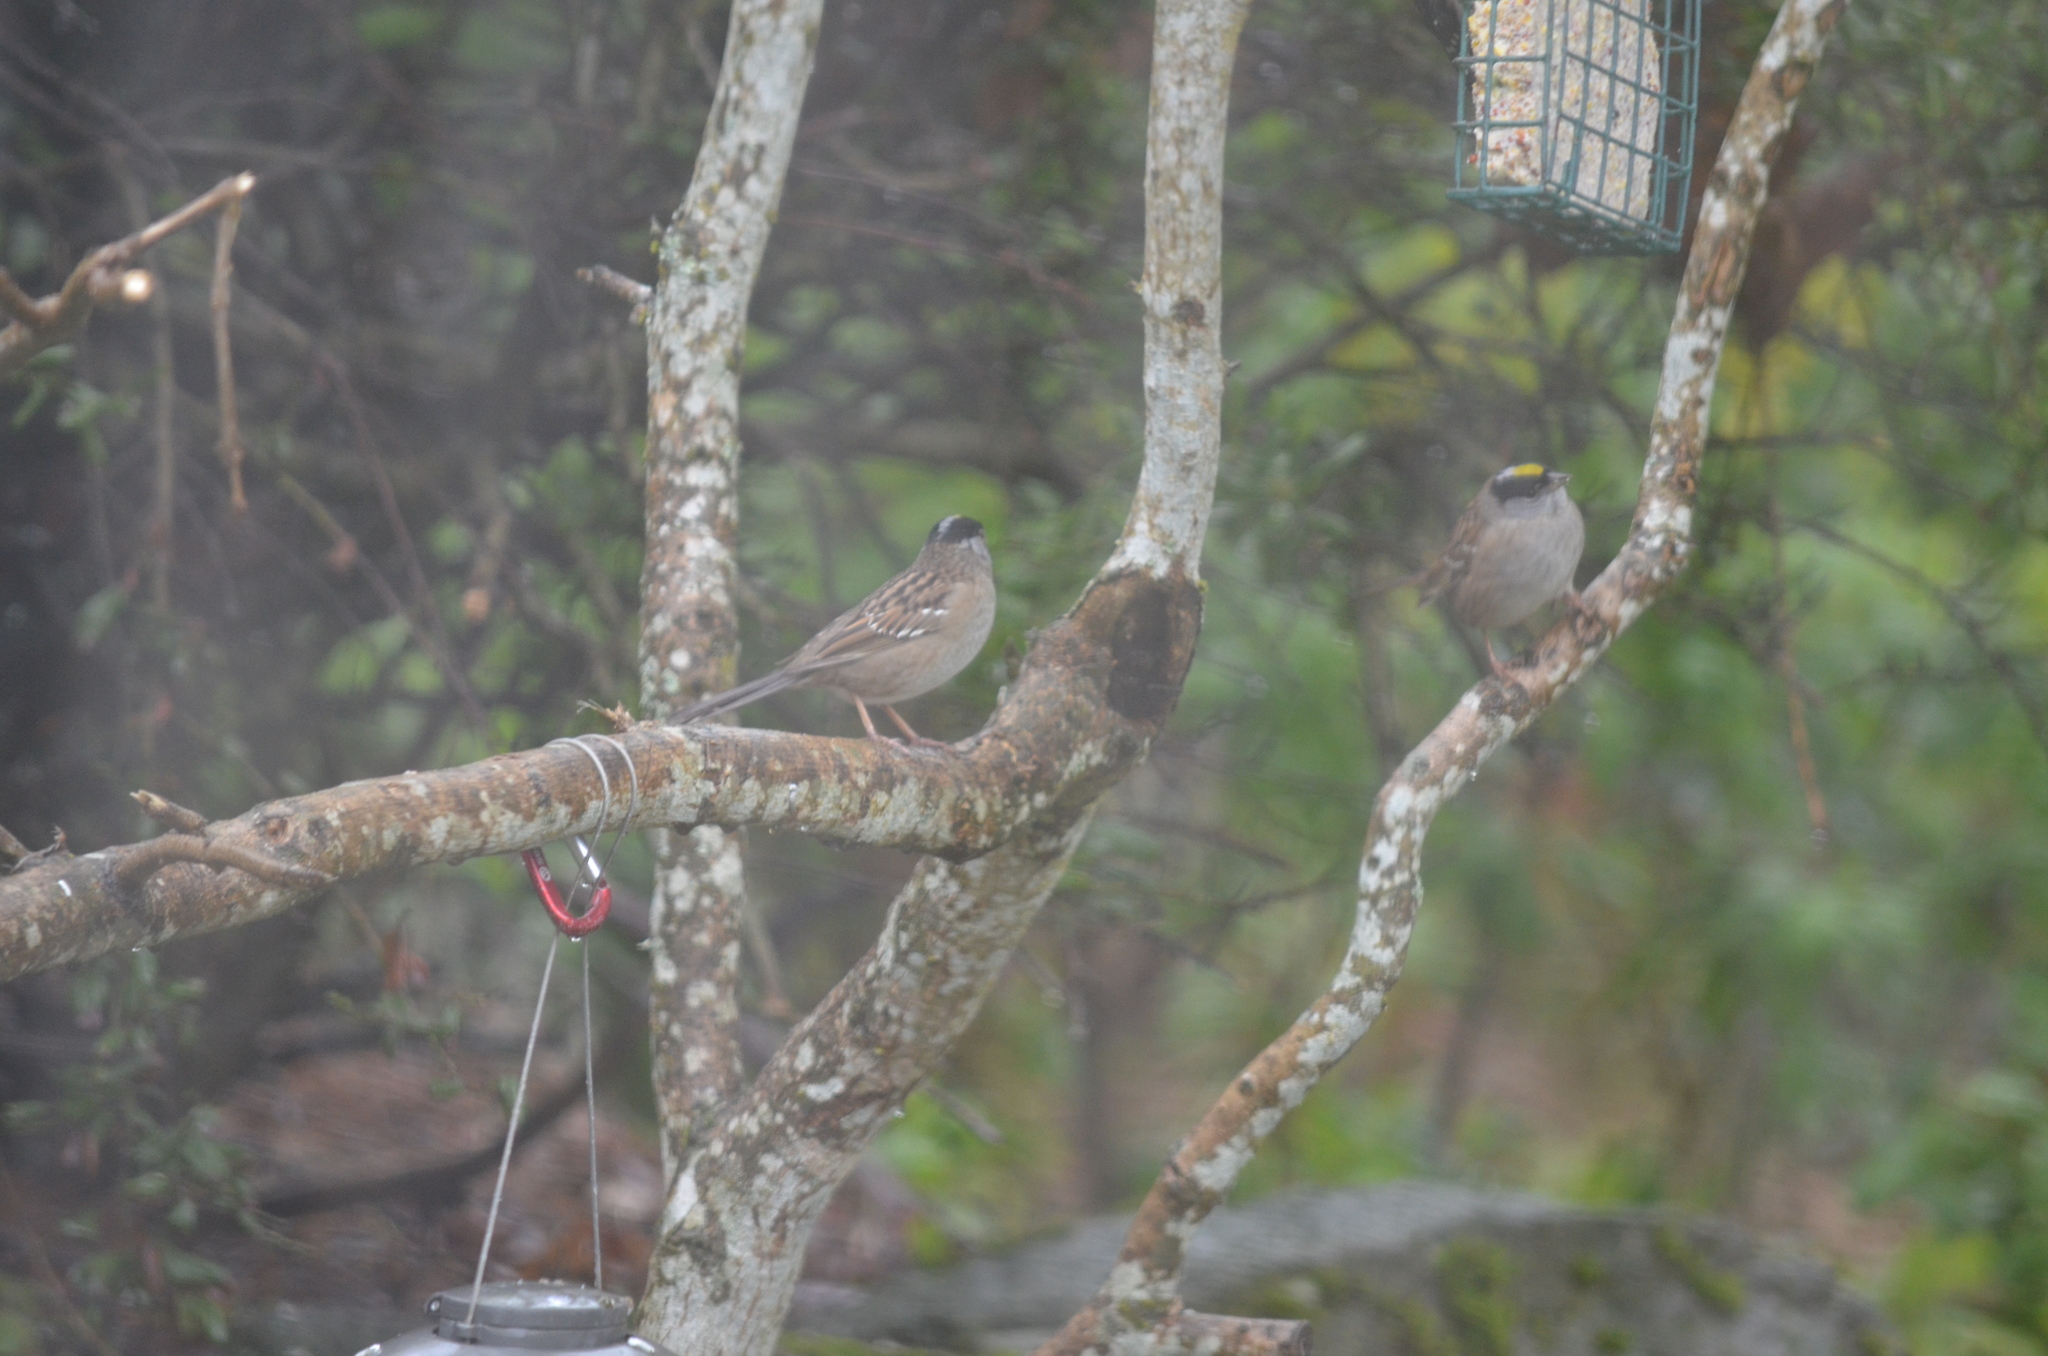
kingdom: Animalia
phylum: Chordata
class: Aves
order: Passeriformes
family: Passerellidae
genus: Zonotrichia
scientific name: Zonotrichia atricapilla
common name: Golden-crowned sparrow
